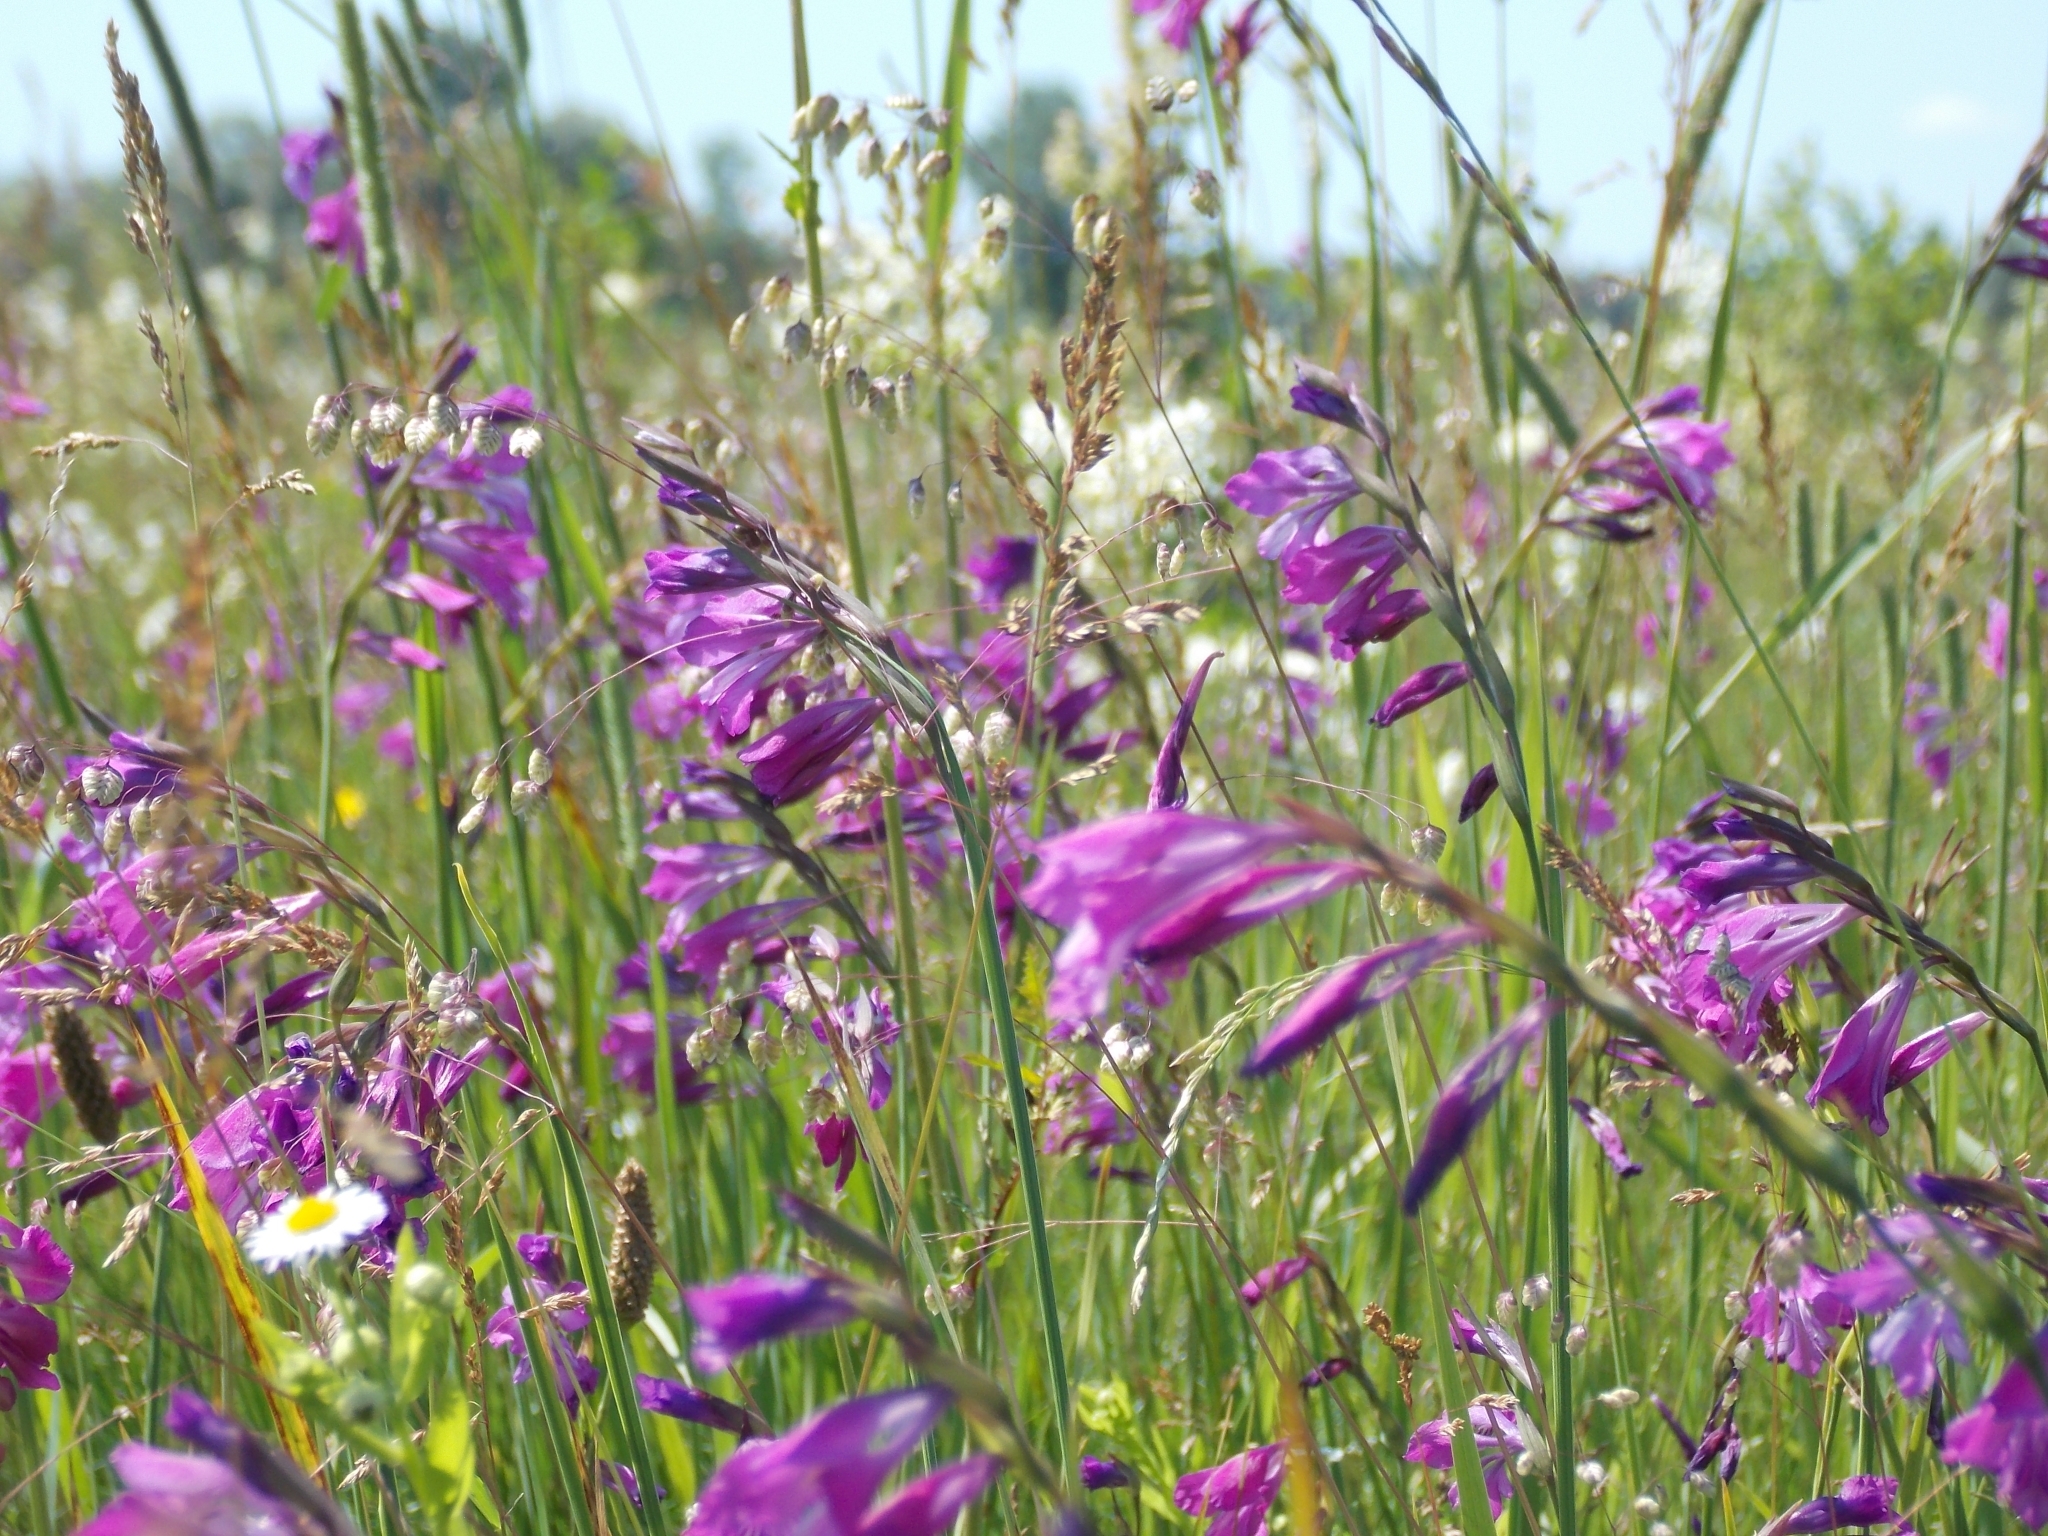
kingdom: Plantae
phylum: Tracheophyta
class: Liliopsida
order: Asparagales
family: Iridaceae
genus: Gladiolus
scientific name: Gladiolus tenuis
